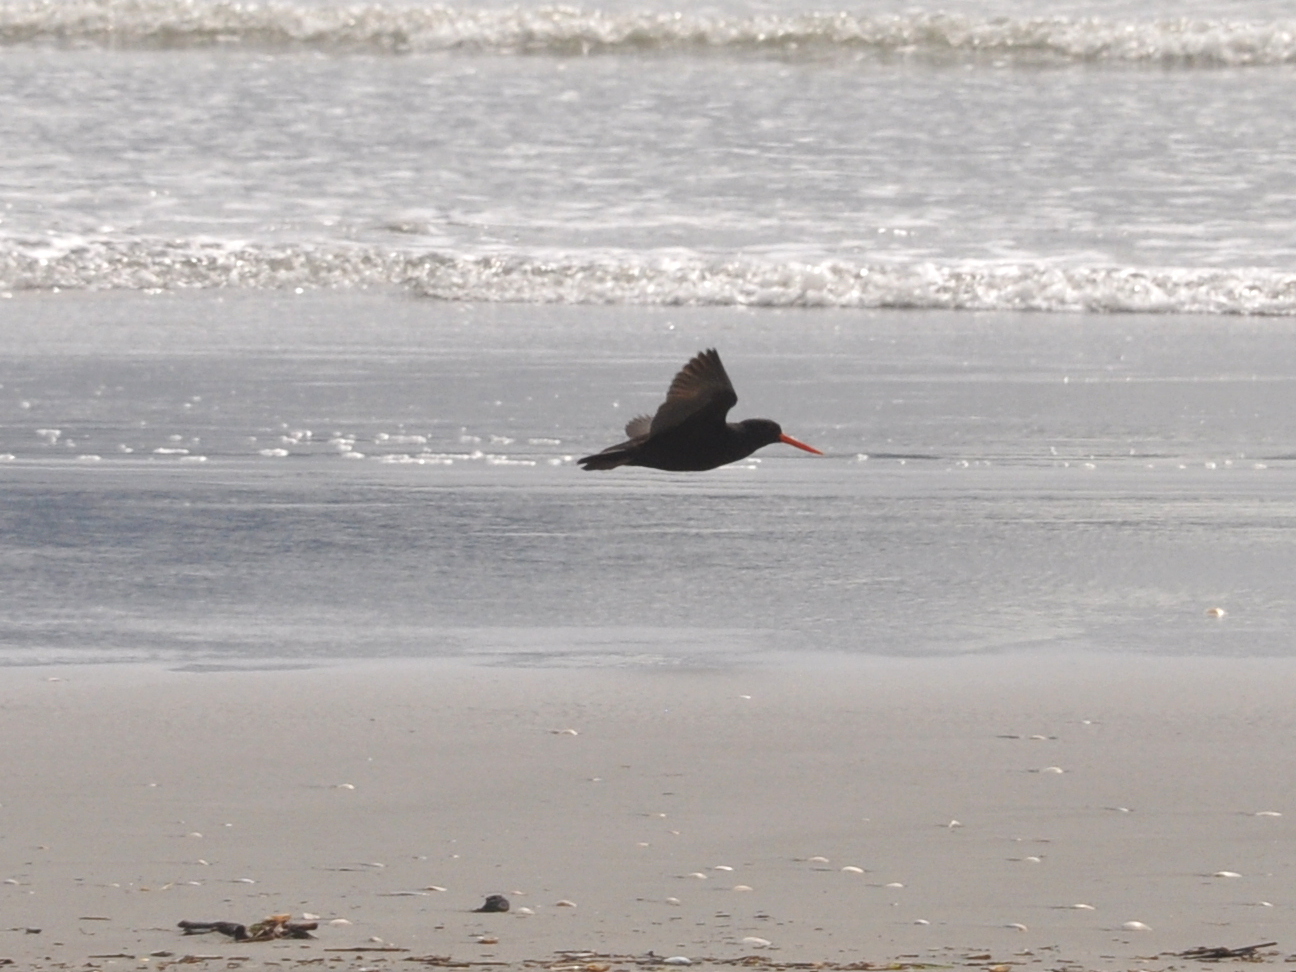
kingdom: Animalia
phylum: Chordata
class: Aves
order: Charadriiformes
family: Haematopodidae
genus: Haematopus
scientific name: Haematopus unicolor
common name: Variable oystercatcher
